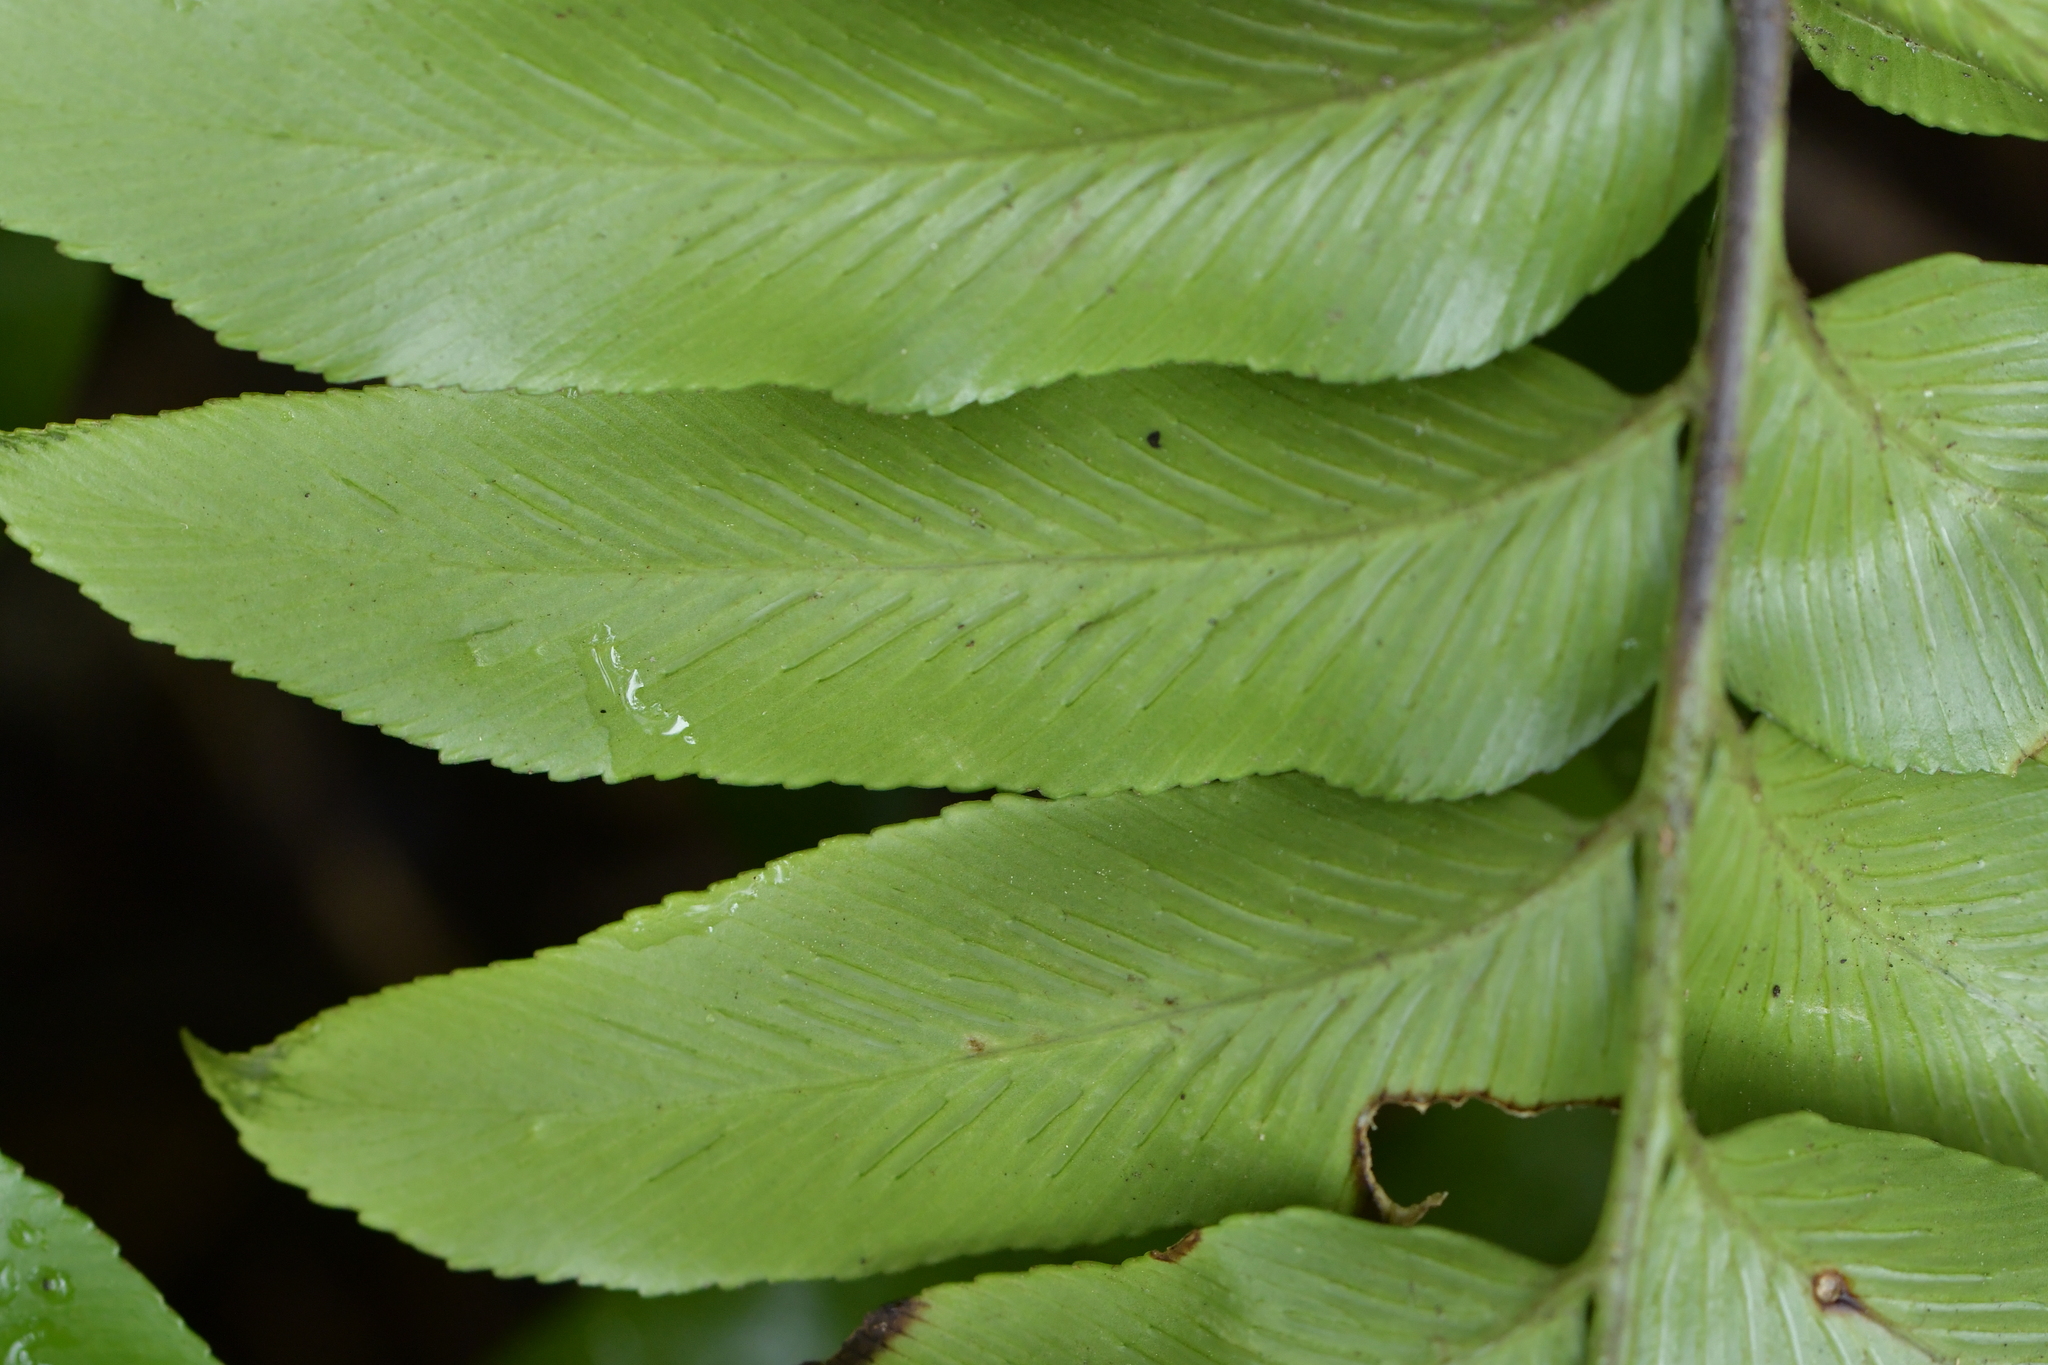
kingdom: Plantae
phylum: Tracheophyta
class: Polypodiopsida
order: Polypodiales
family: Aspleniaceae
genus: Asplenium
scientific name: Asplenium oblongifolium
